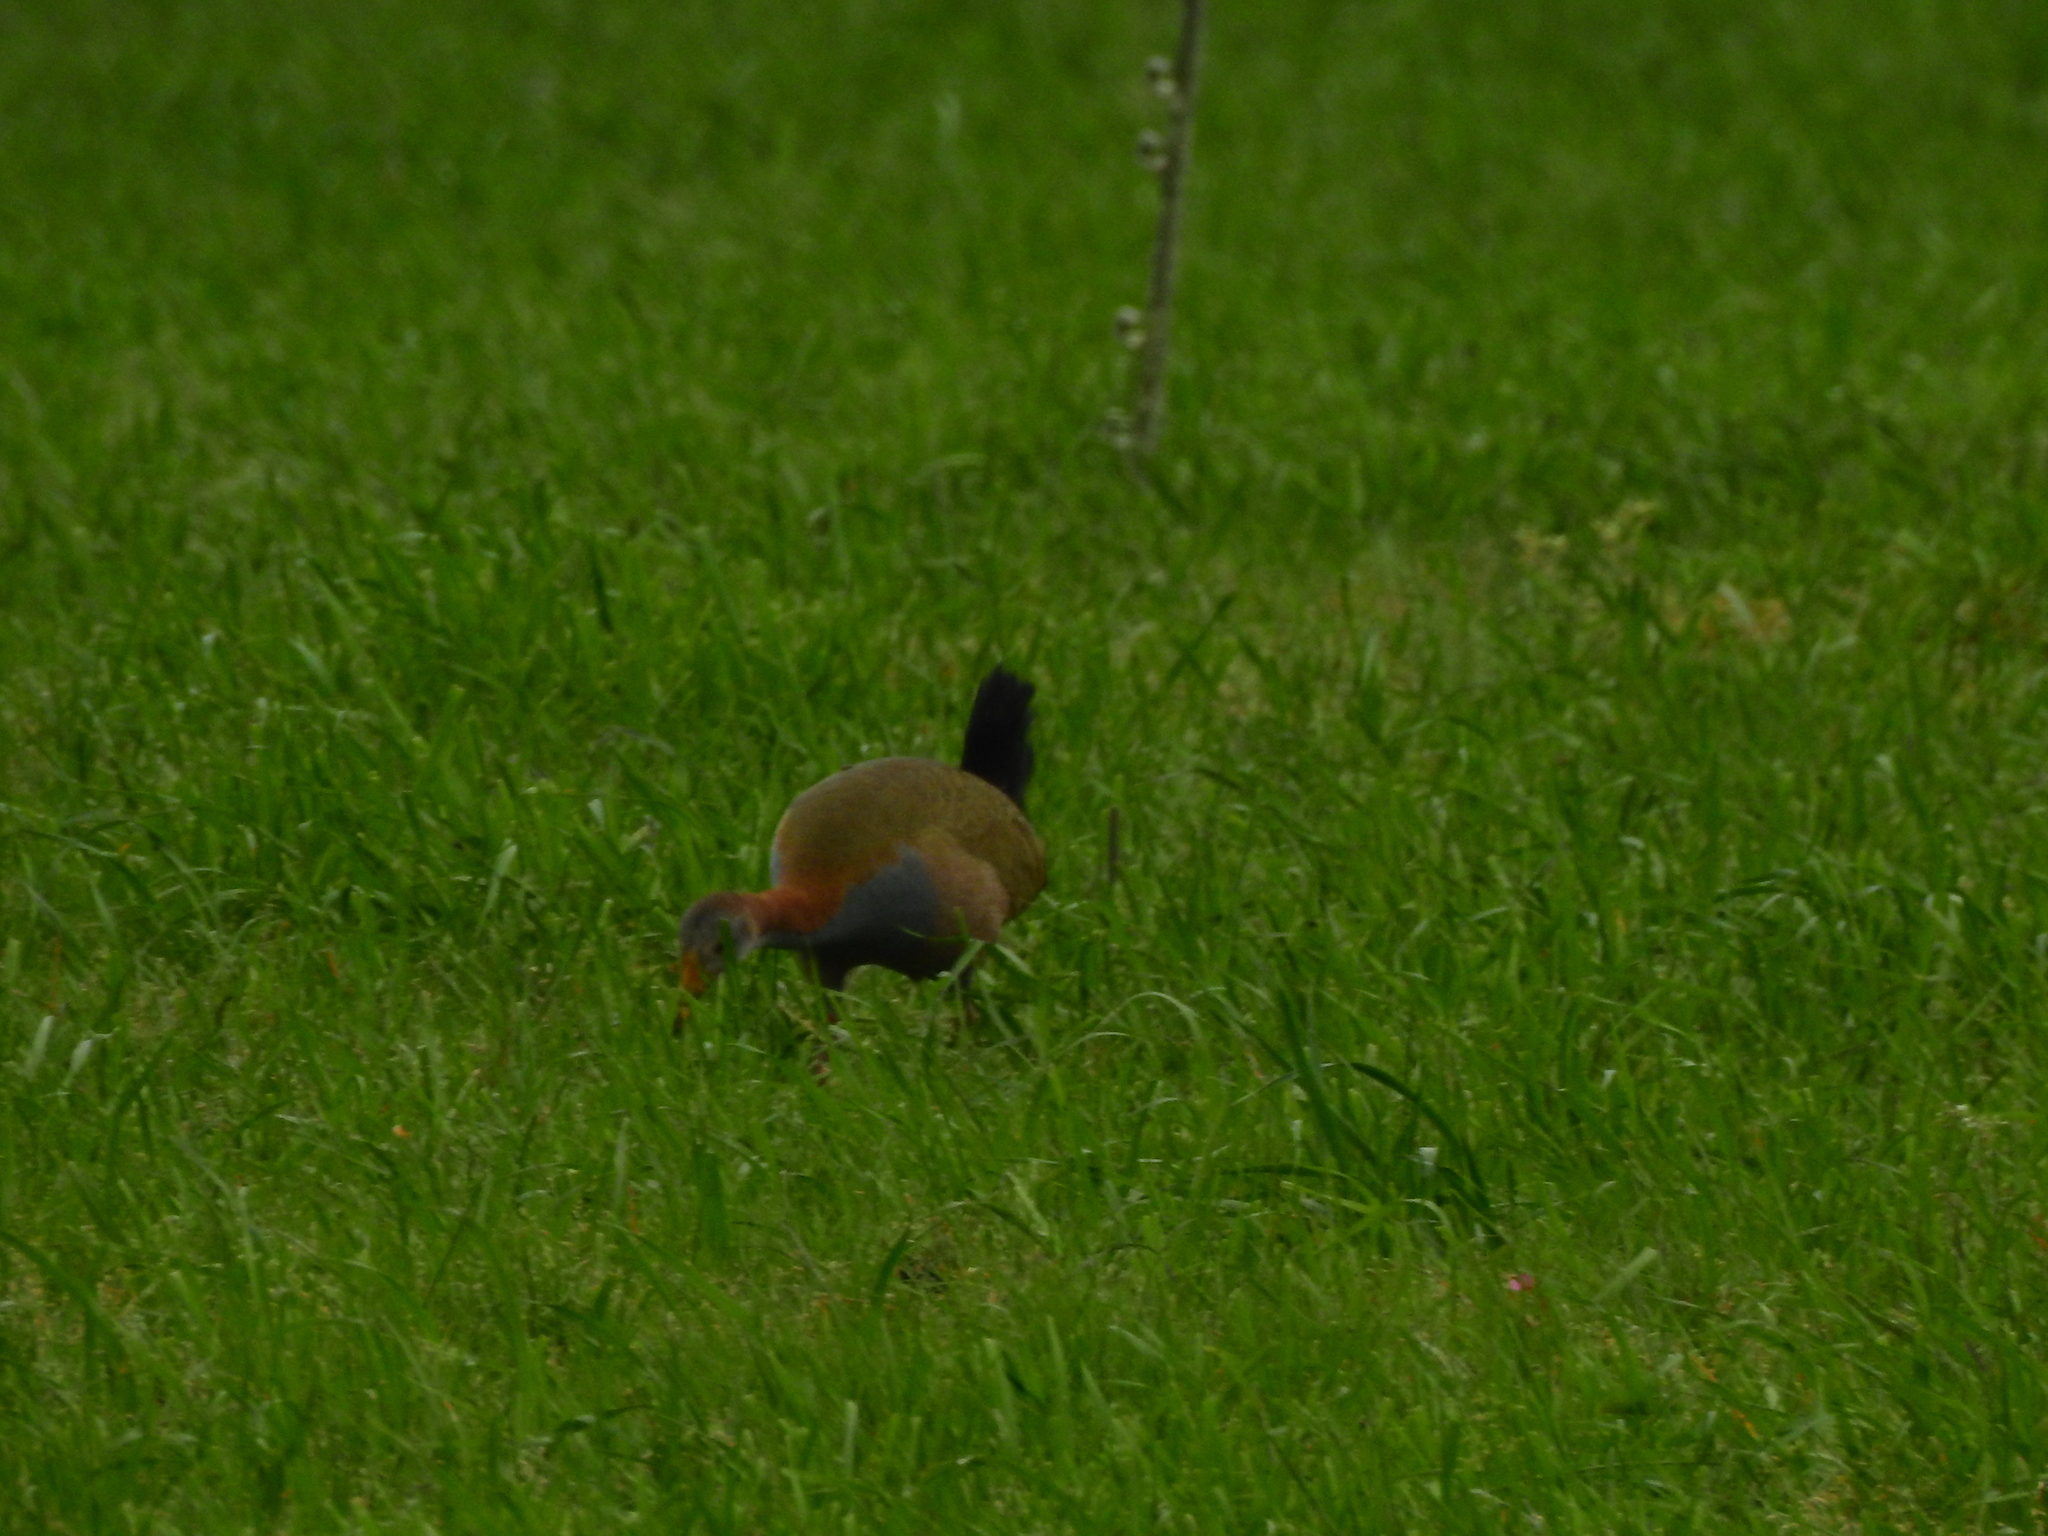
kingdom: Animalia
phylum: Chordata
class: Aves
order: Gruiformes
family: Rallidae
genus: Aramides
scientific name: Aramides ypecaha
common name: Giant wood rail
